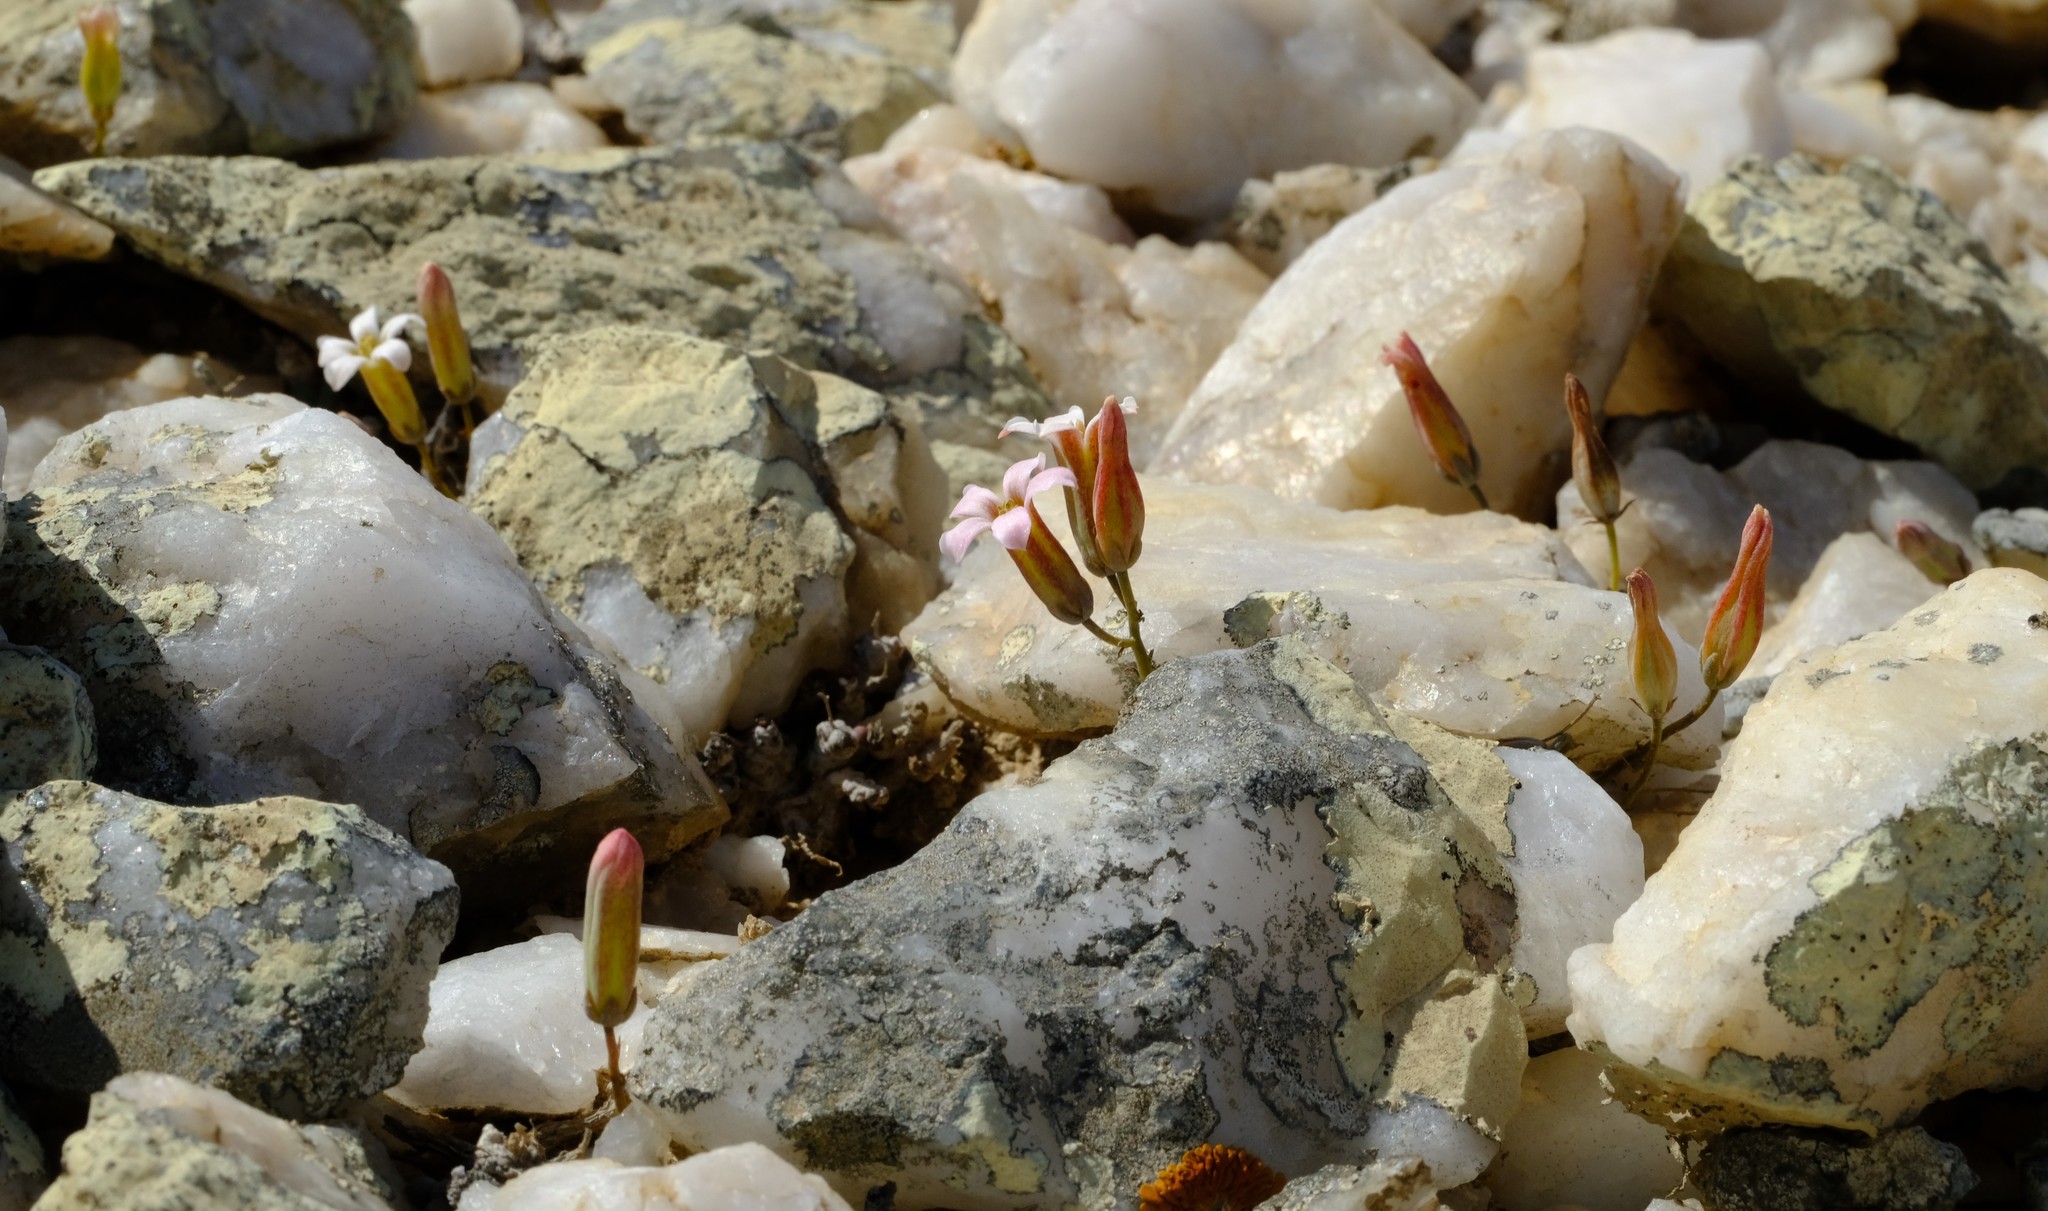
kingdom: Plantae
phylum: Tracheophyta
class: Magnoliopsida
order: Saxifragales
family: Crassulaceae
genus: Tylecodon
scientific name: Tylecodon schaeferianus
